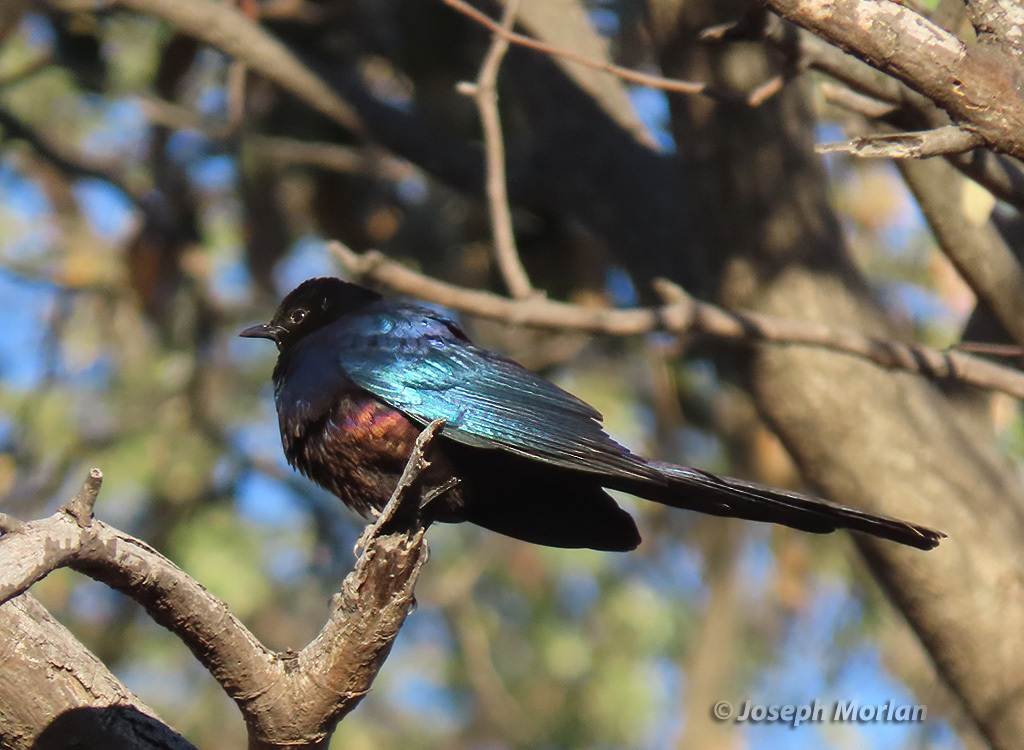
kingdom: Animalia
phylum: Chordata
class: Aves
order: Passeriformes
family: Sturnidae
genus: Lamprotornis
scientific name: Lamprotornis mevesii
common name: Meves's starling
